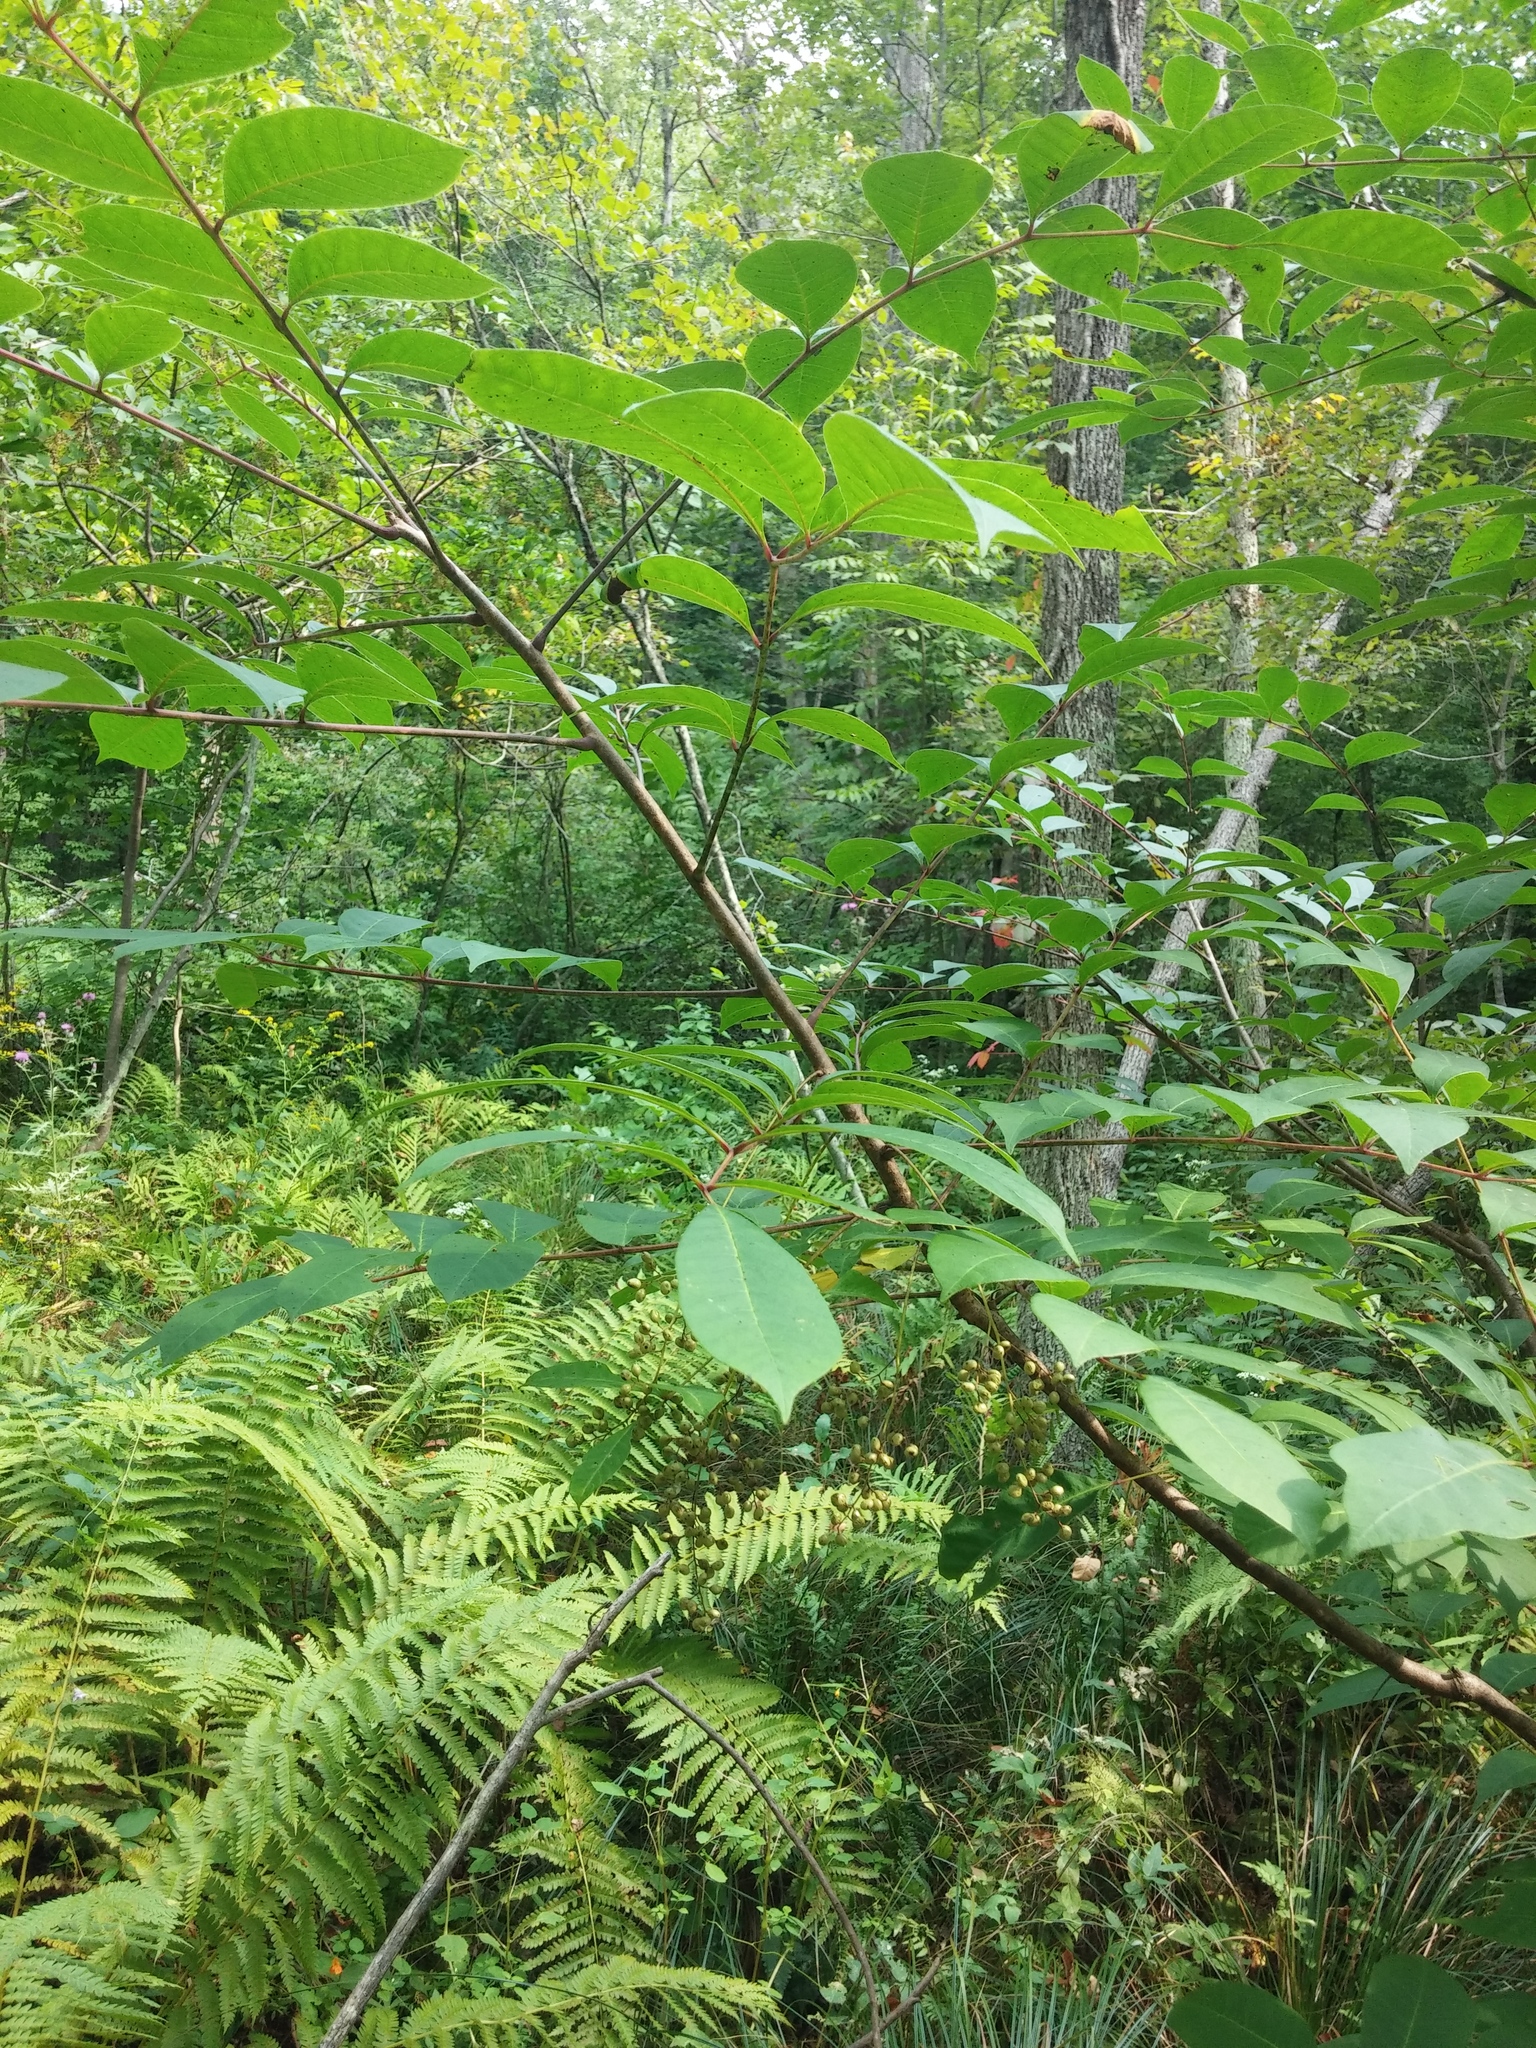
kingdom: Plantae
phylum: Tracheophyta
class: Magnoliopsida
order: Sapindales
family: Anacardiaceae
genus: Toxicodendron
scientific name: Toxicodendron vernix
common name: Poison sumac
